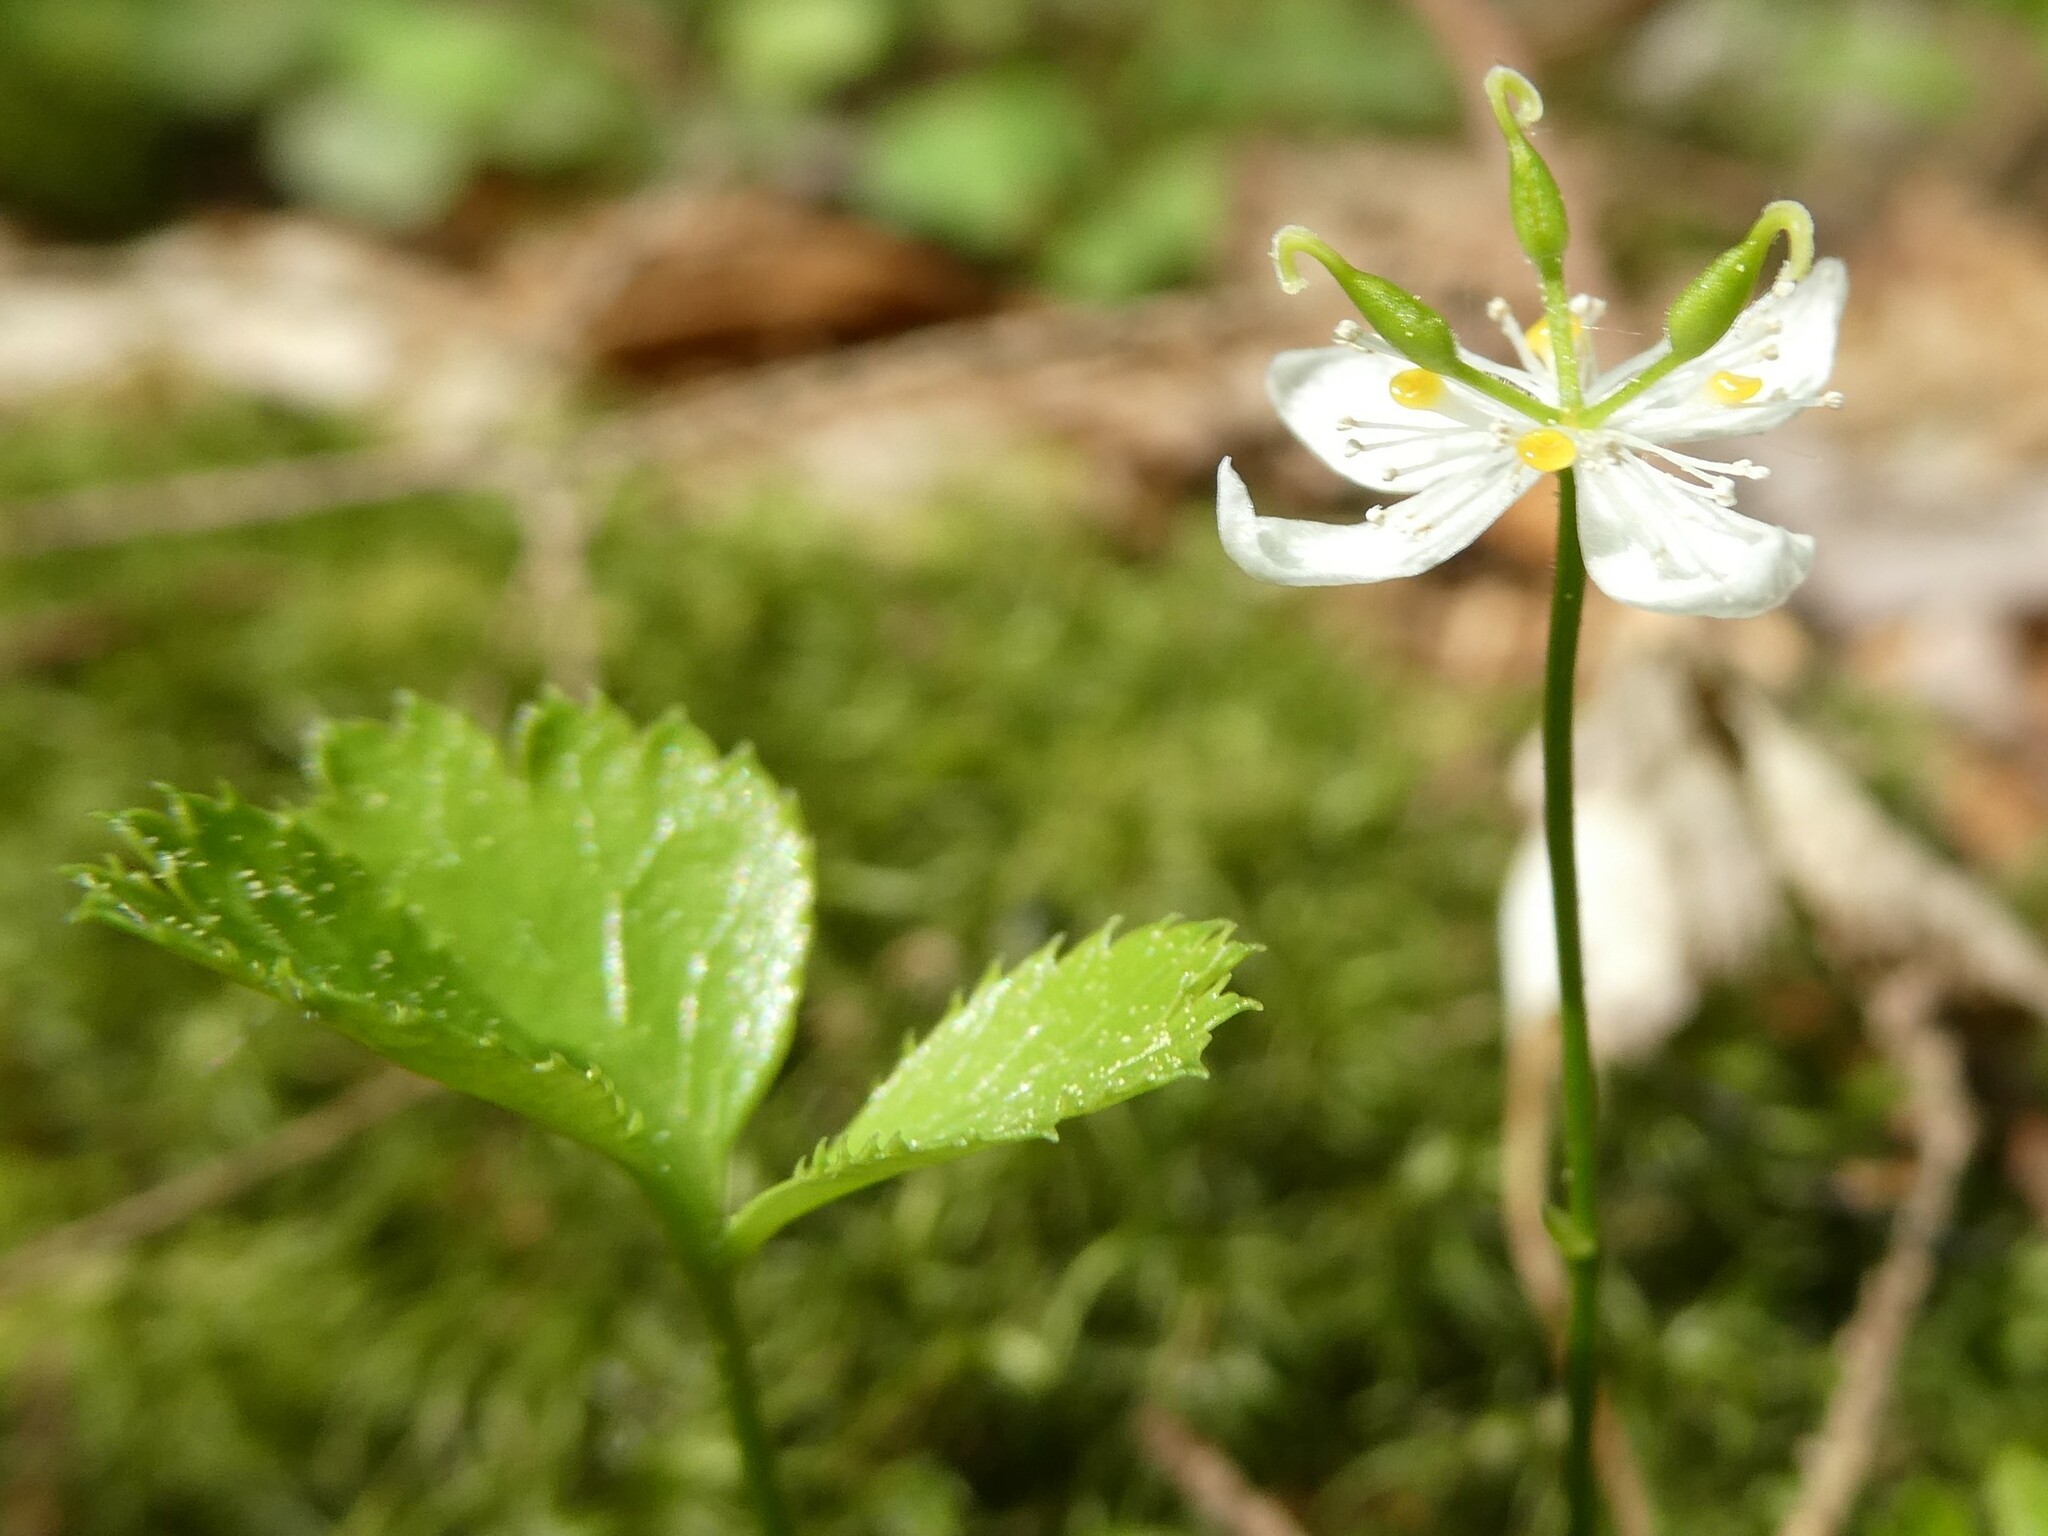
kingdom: Plantae
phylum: Tracheophyta
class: Magnoliopsida
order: Ranunculales
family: Ranunculaceae
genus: Coptis
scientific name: Coptis trifolia
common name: Canker-root
